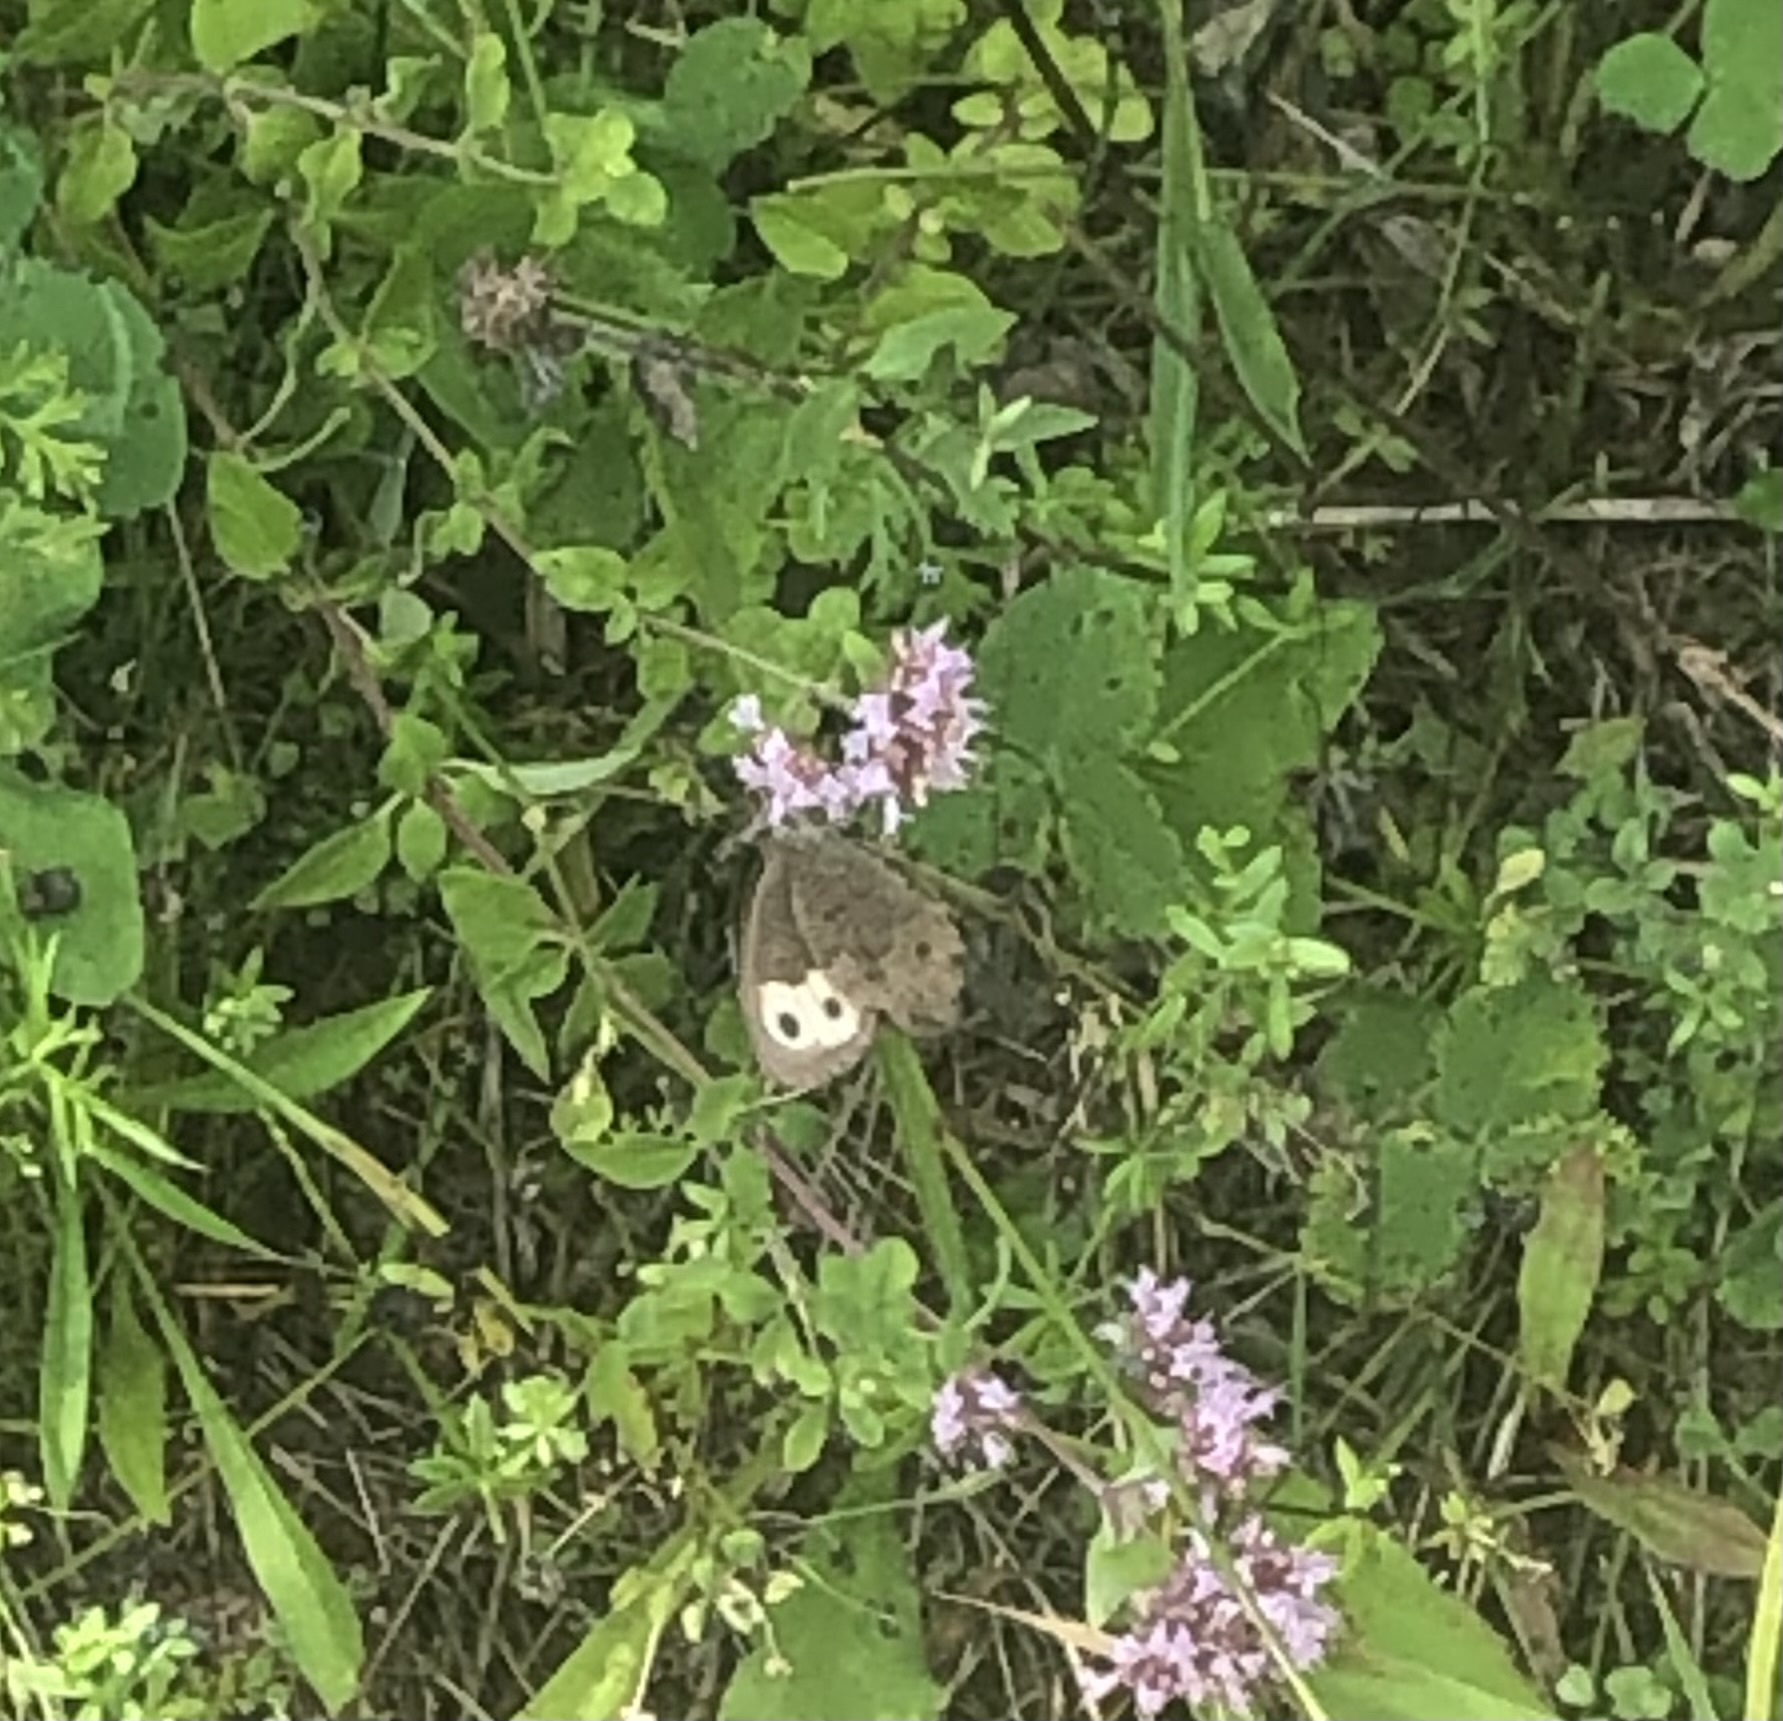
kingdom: Animalia
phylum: Arthropoda
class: Insecta
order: Lepidoptera
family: Nymphalidae
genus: Cercyonis
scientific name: Cercyonis pegala
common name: Common wood-nymph
